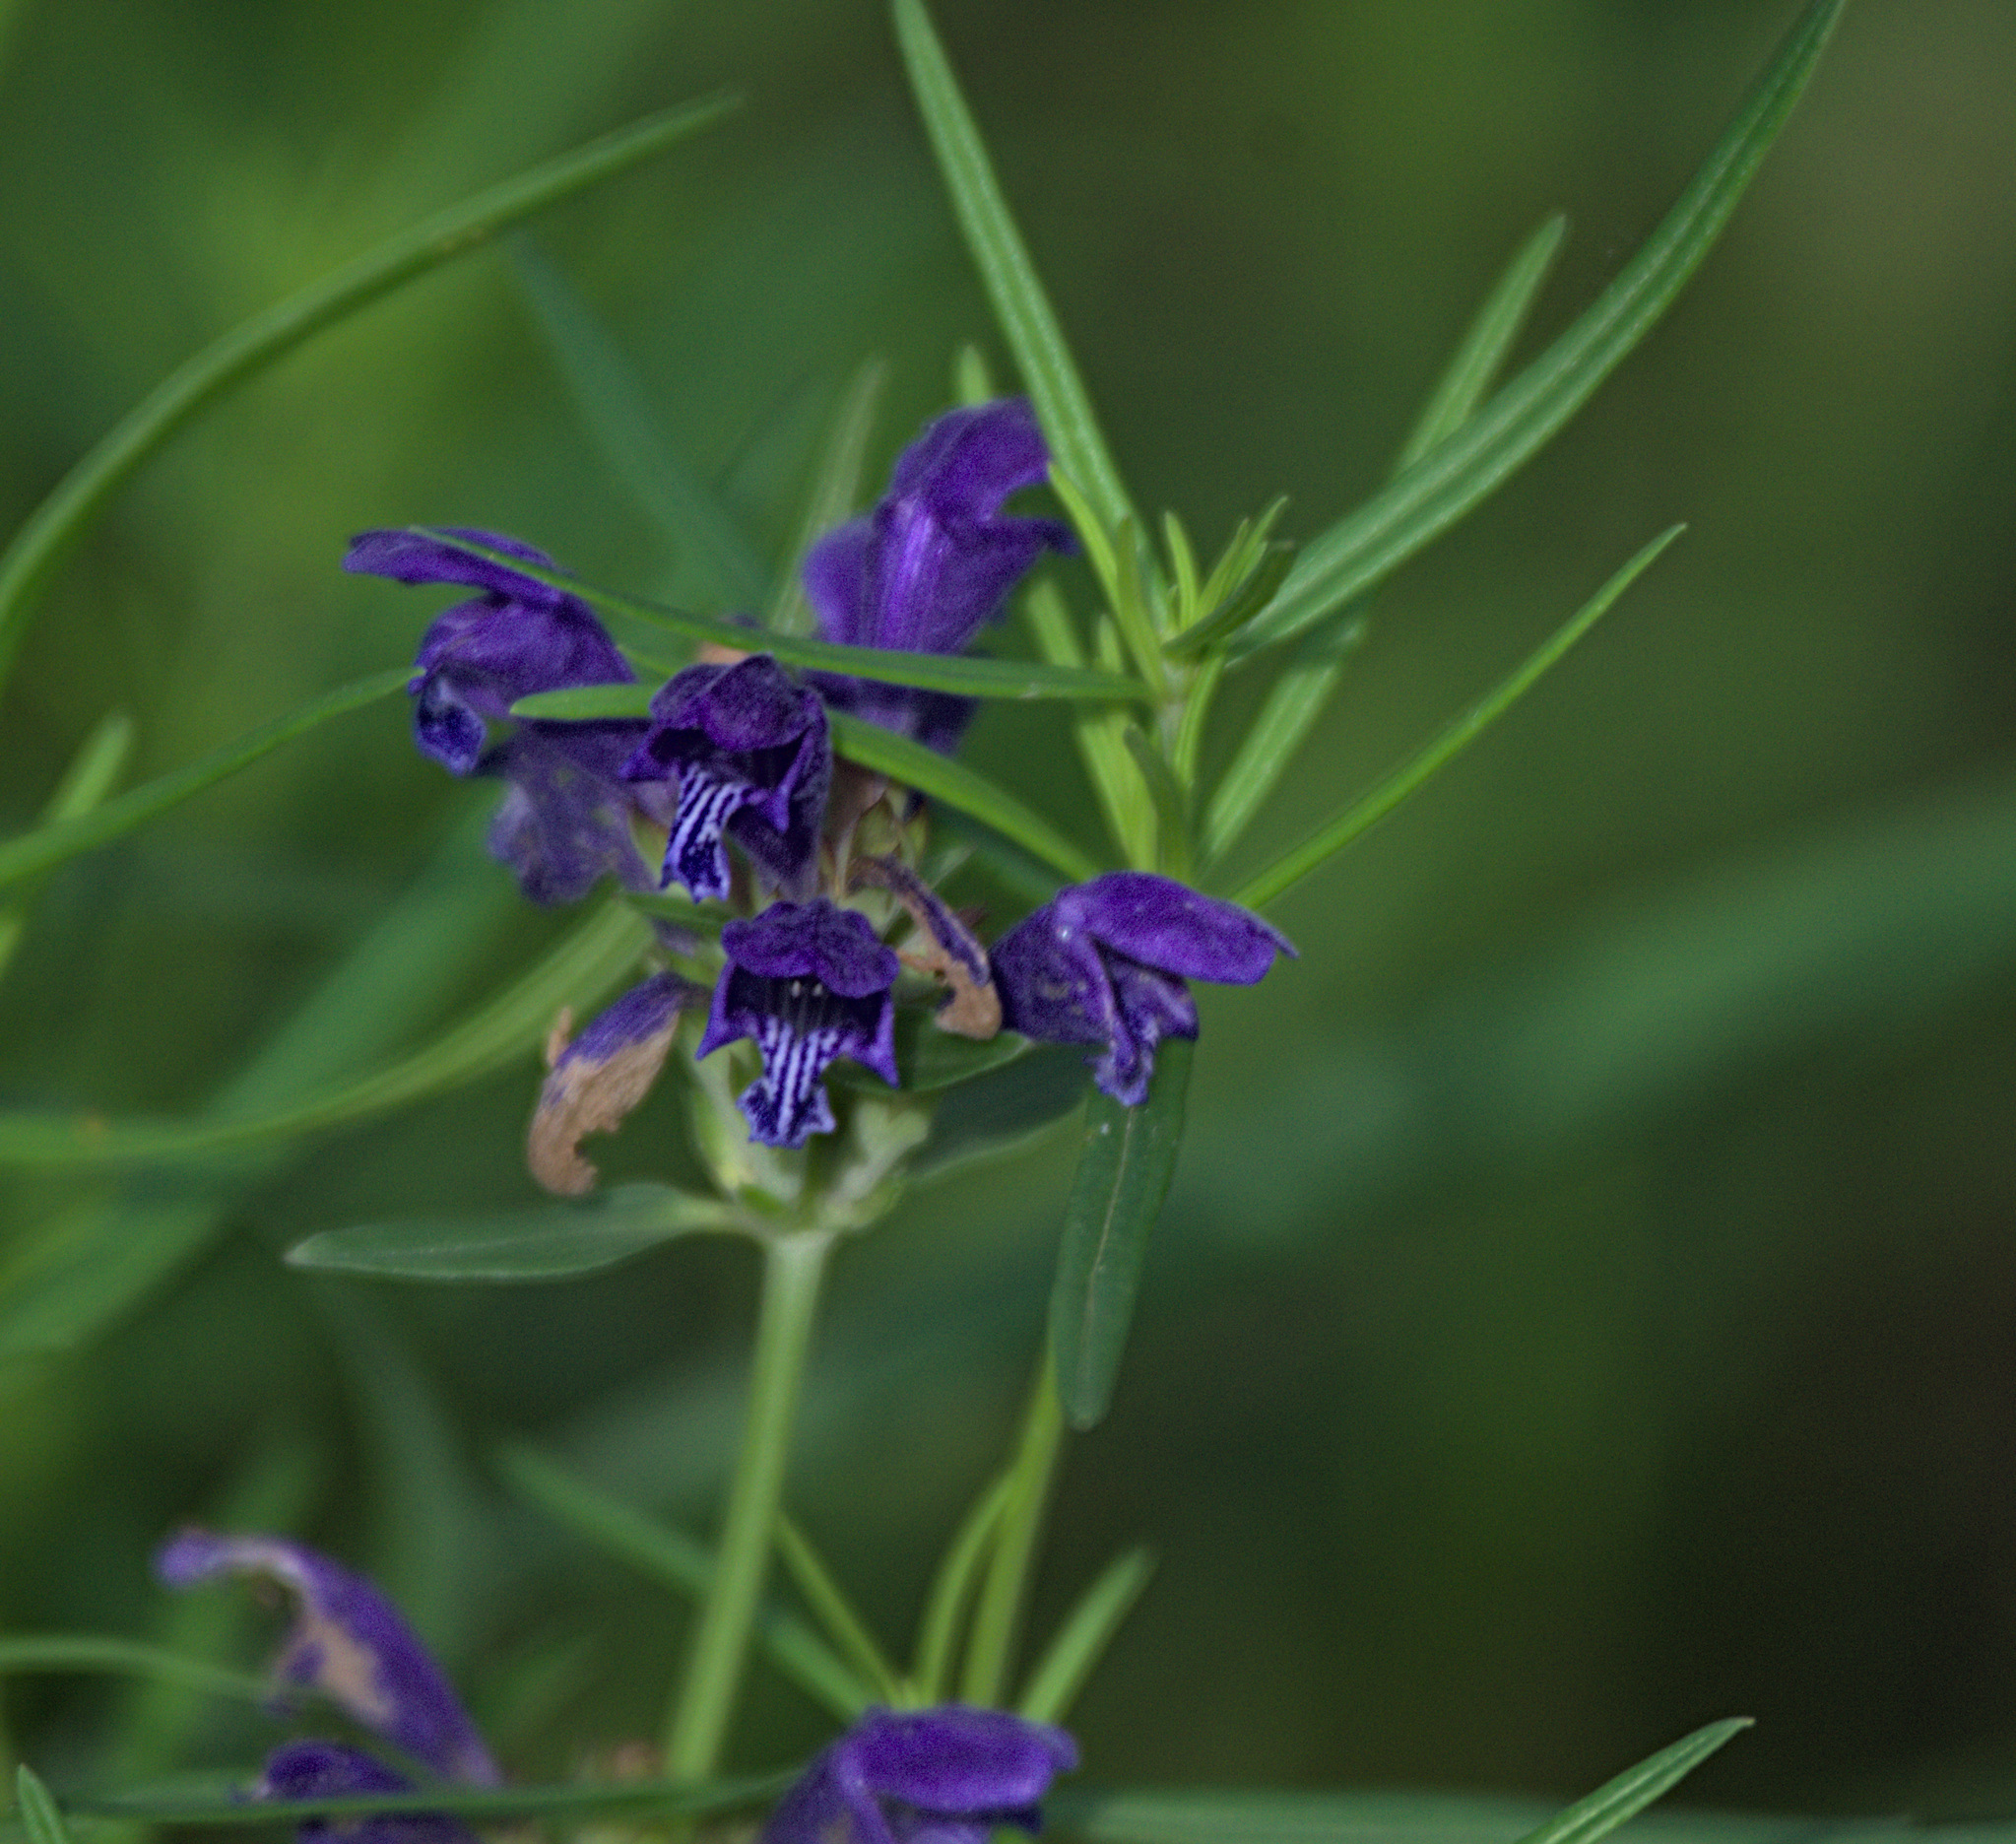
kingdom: Plantae
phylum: Tracheophyta
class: Magnoliopsida
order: Lamiales
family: Lamiaceae
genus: Dracocephalum
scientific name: Dracocephalum ruyschiana
